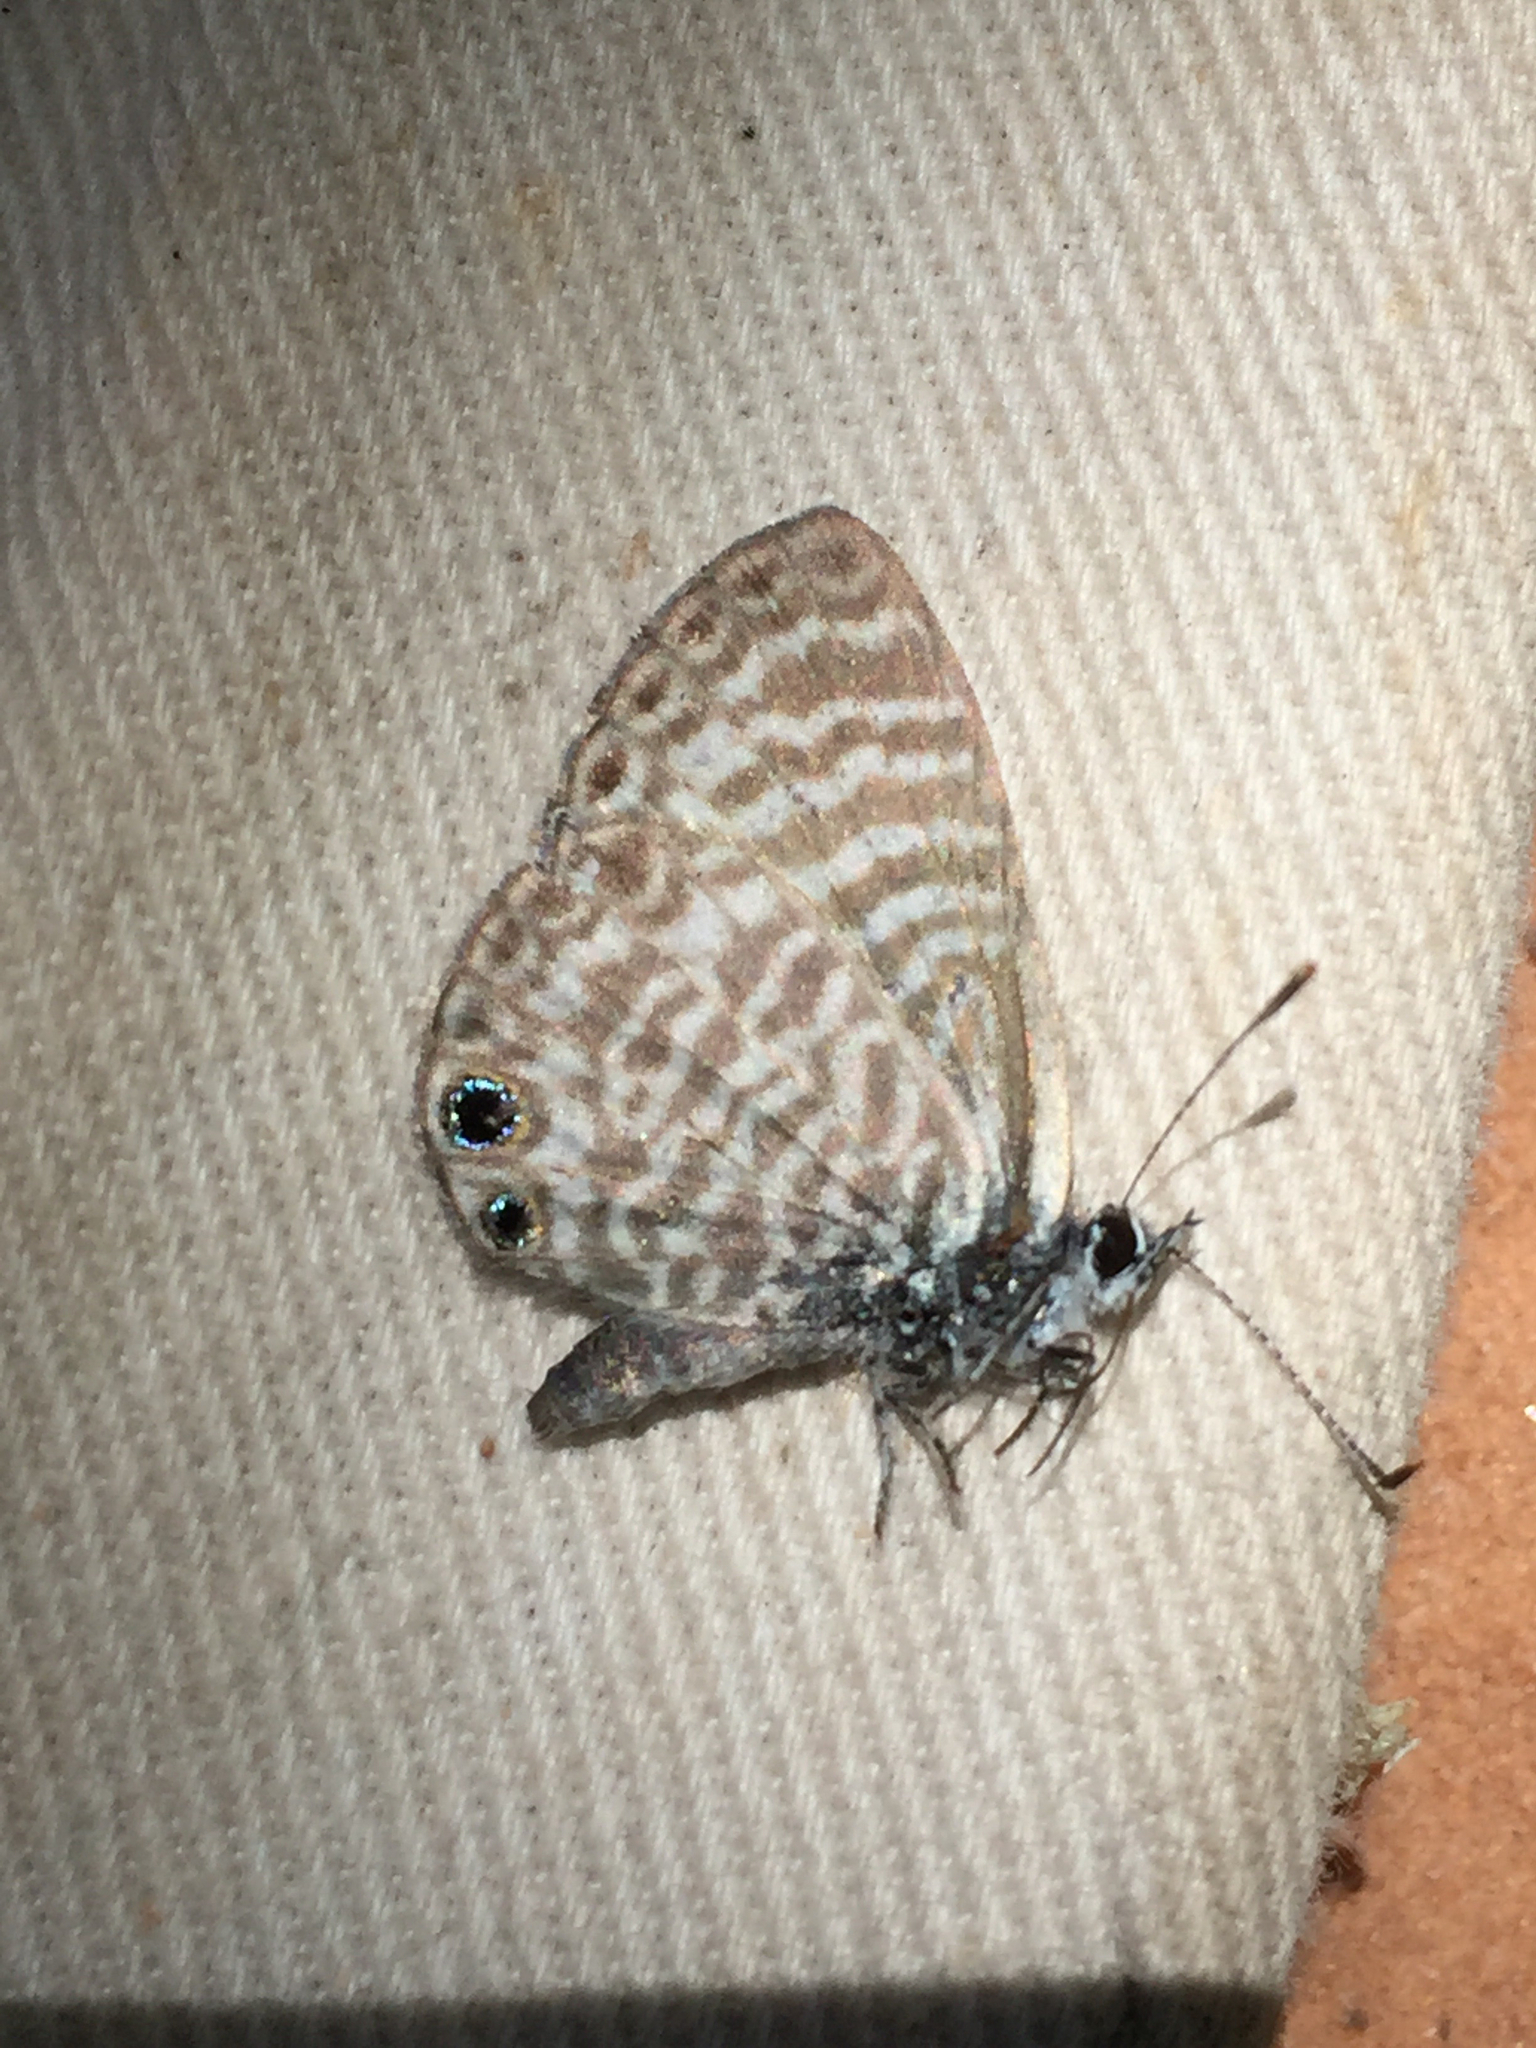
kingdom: Animalia
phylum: Arthropoda
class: Insecta
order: Lepidoptera
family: Lycaenidae
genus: Leptotes
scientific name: Leptotes marina
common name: Marine blue
